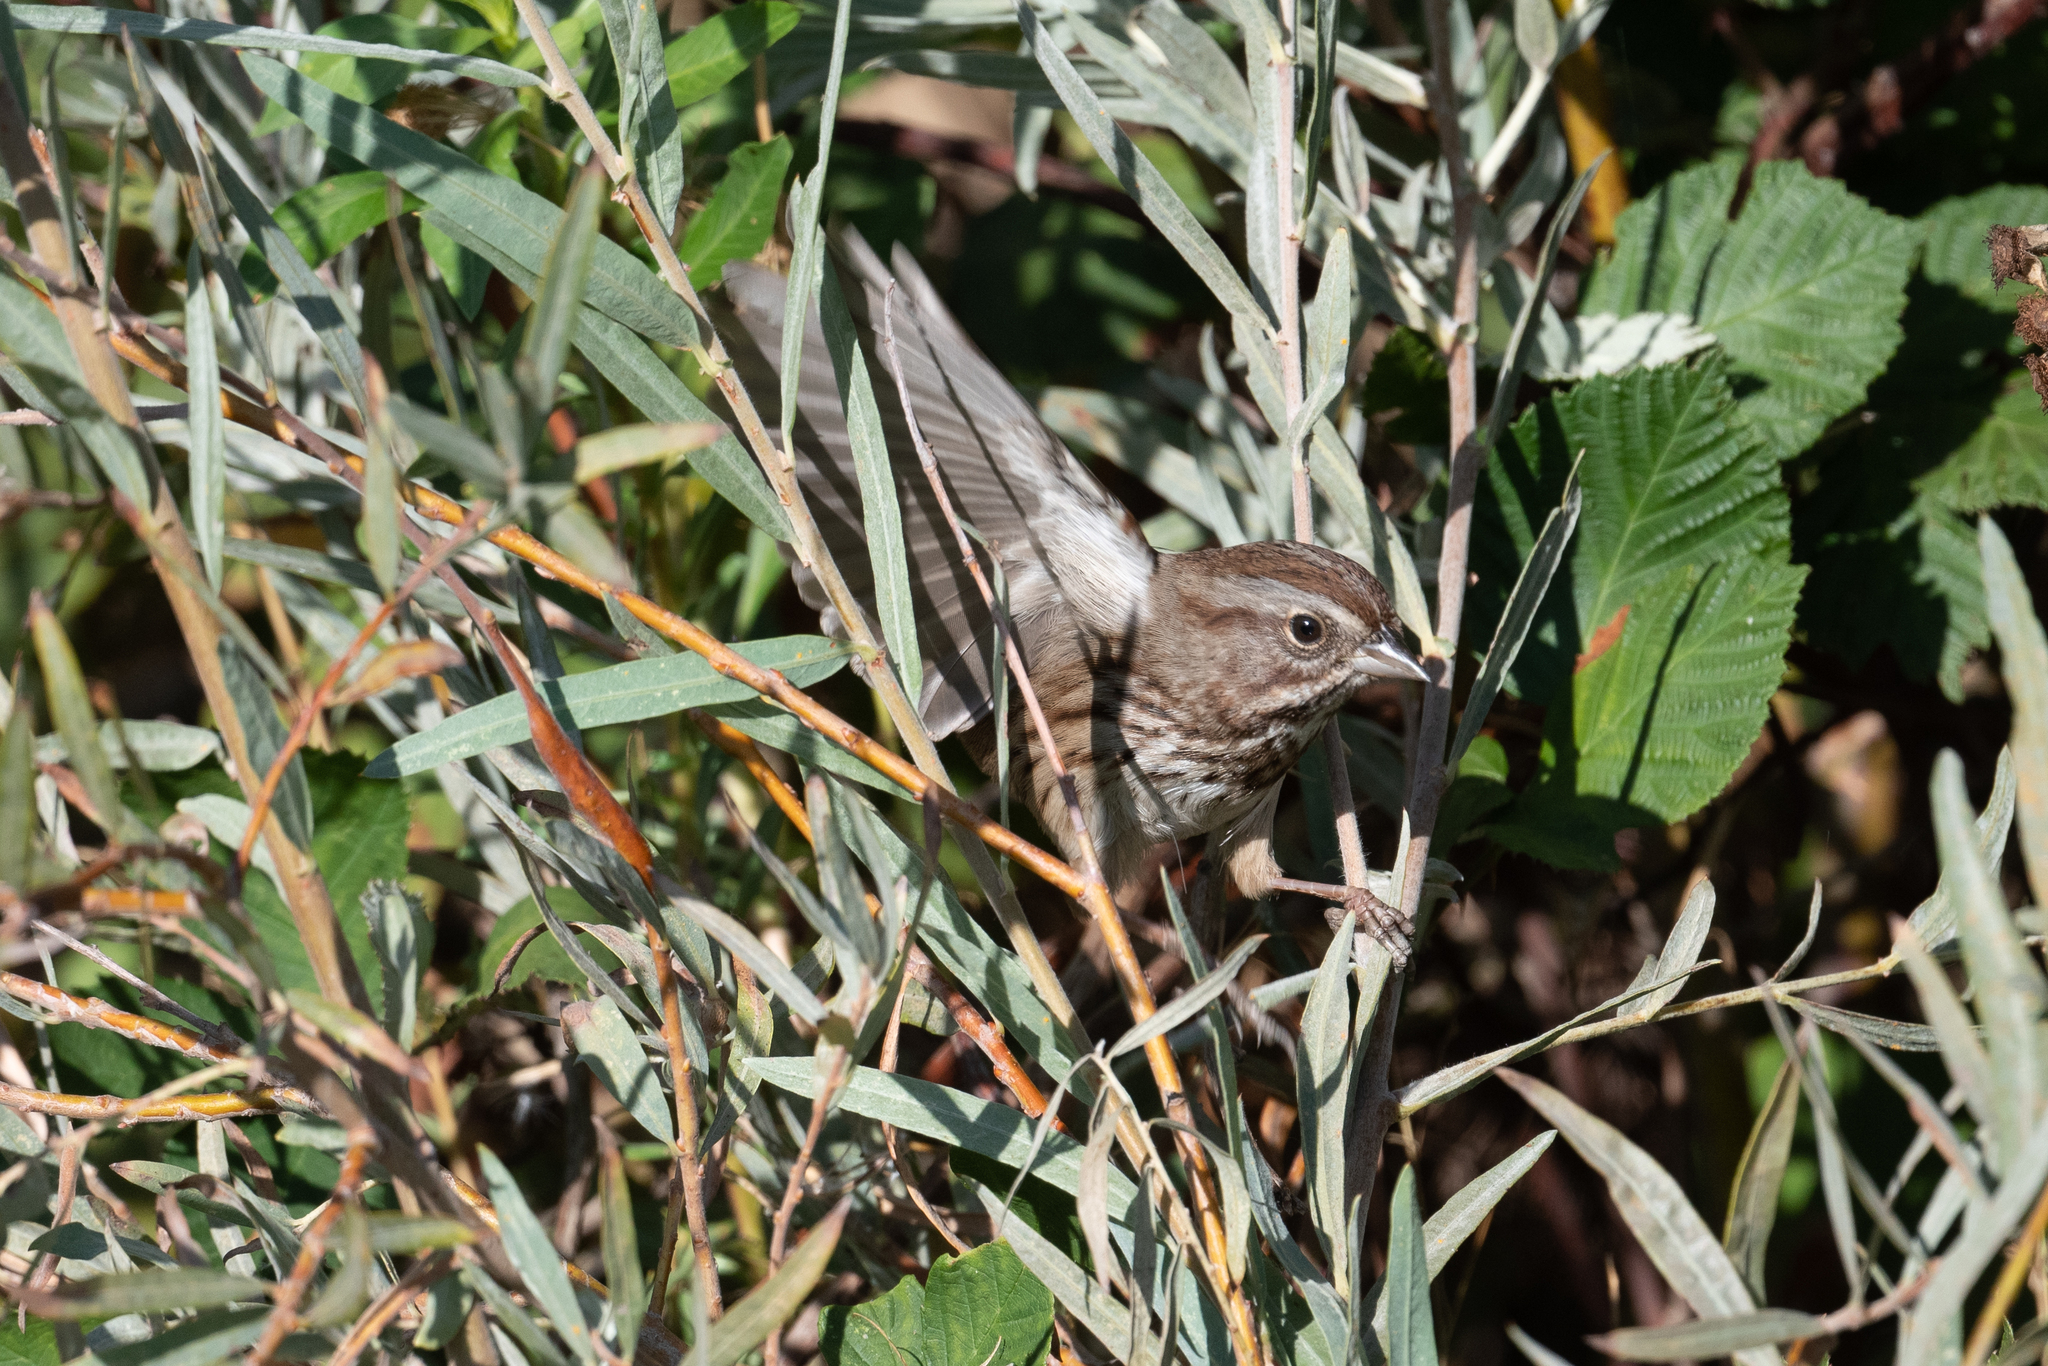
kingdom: Animalia
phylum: Chordata
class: Aves
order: Passeriformes
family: Passerellidae
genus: Melospiza
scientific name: Melospiza melodia
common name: Song sparrow
